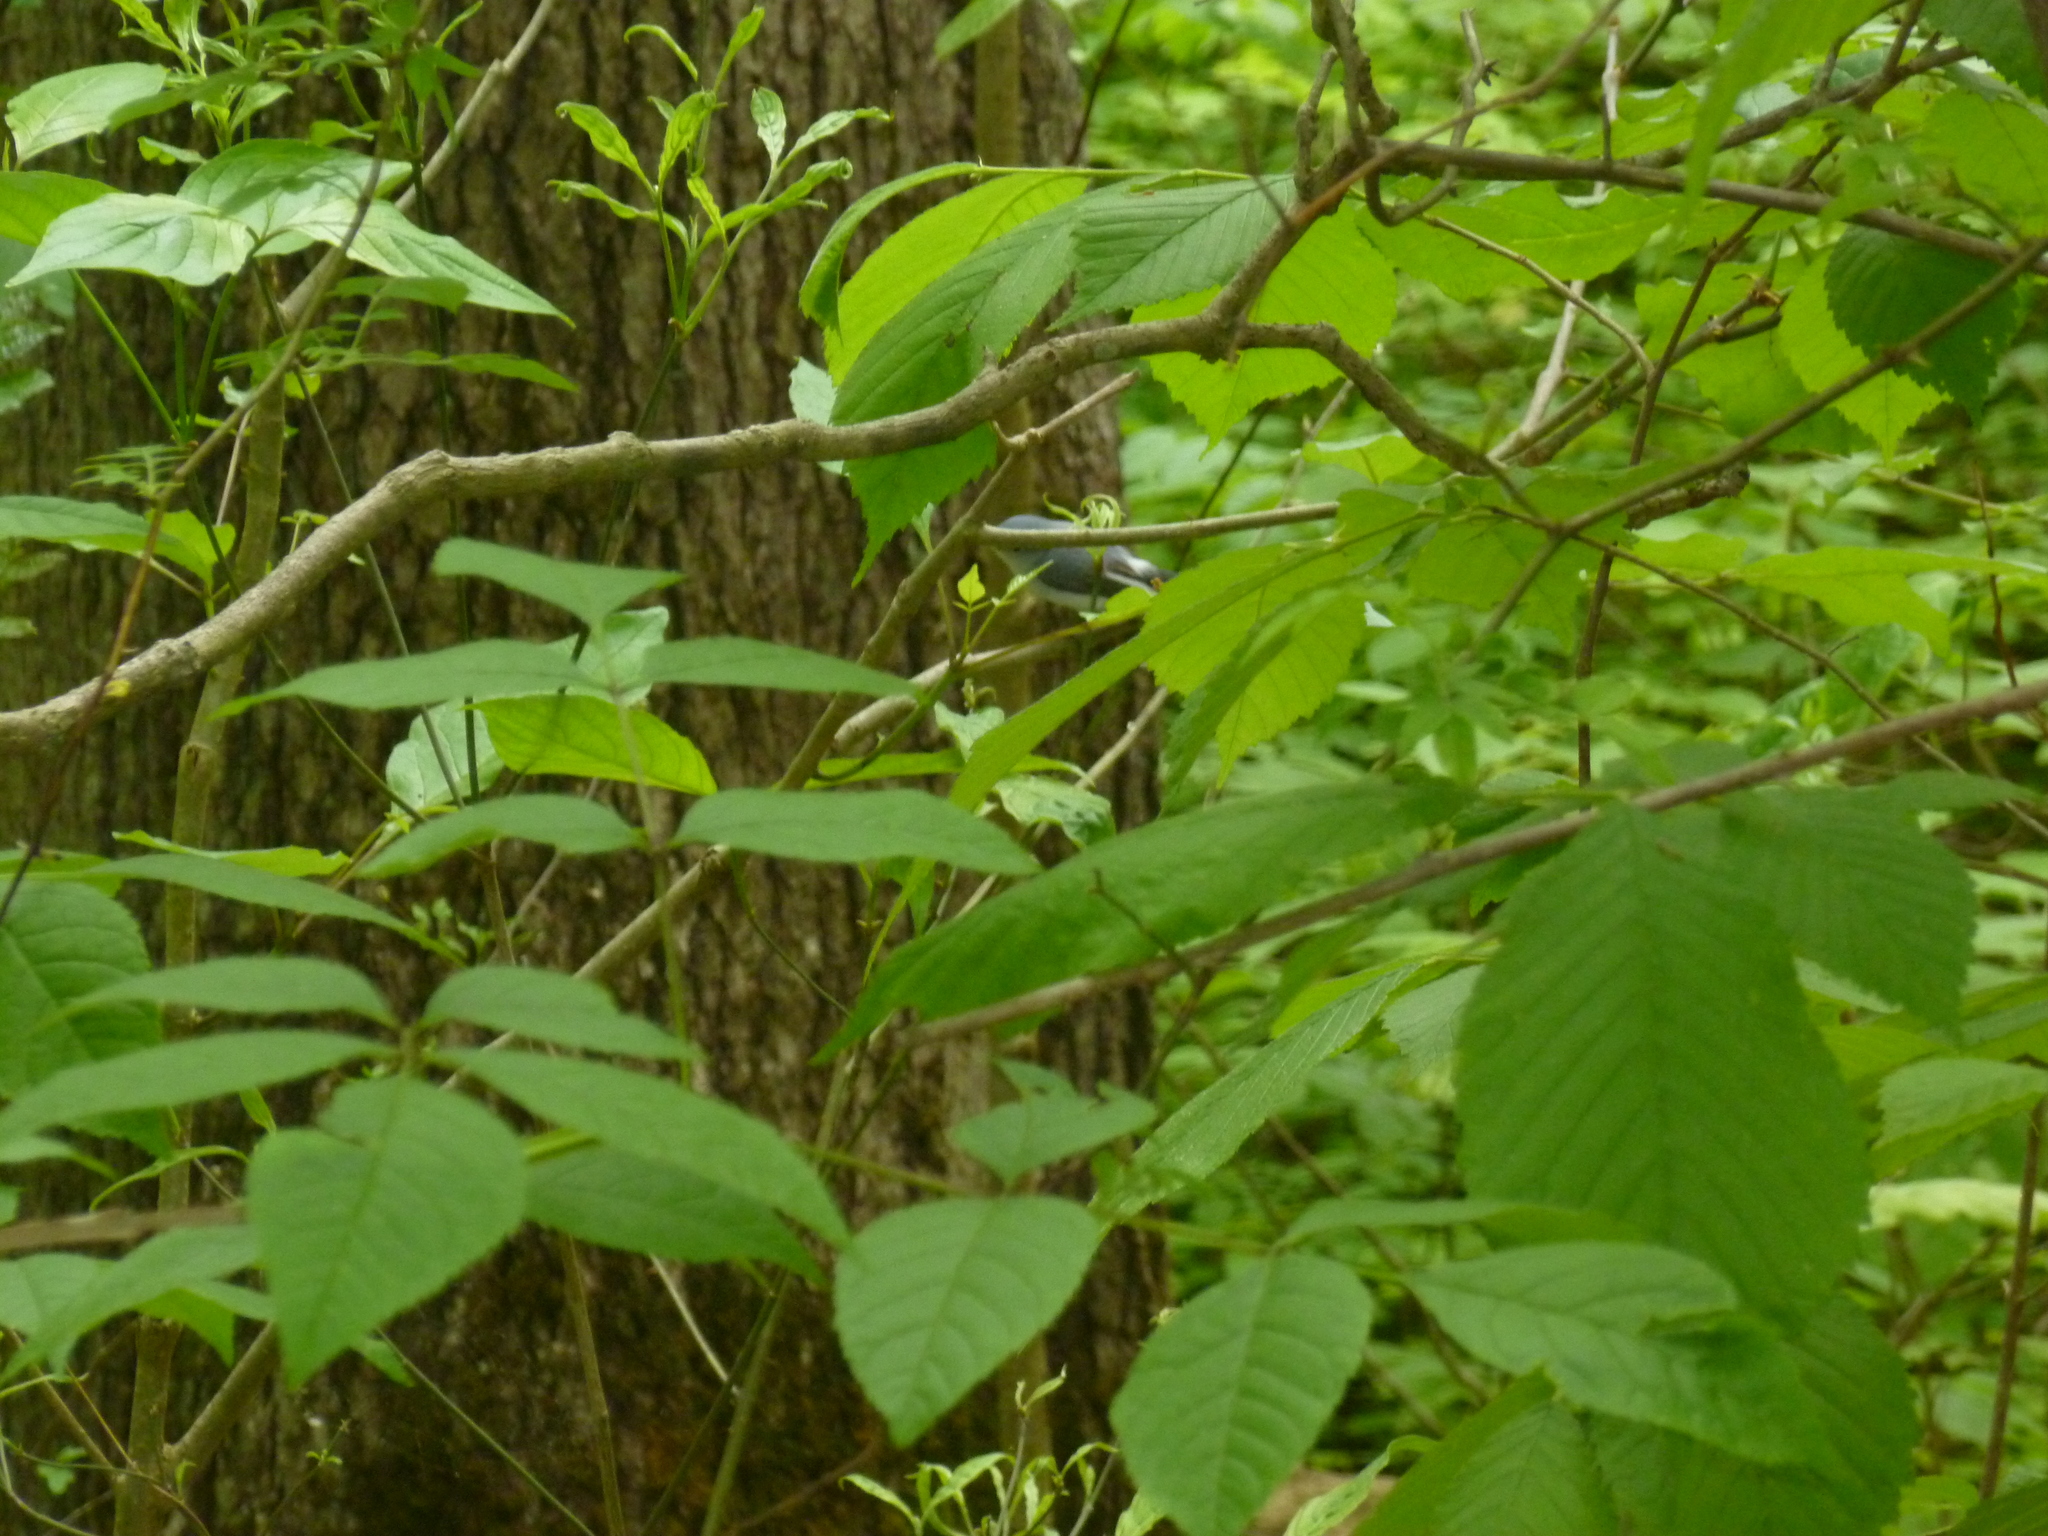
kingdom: Animalia
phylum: Chordata
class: Aves
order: Passeriformes
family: Polioptilidae
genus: Polioptila
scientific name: Polioptila caerulea
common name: Blue-gray gnatcatcher
